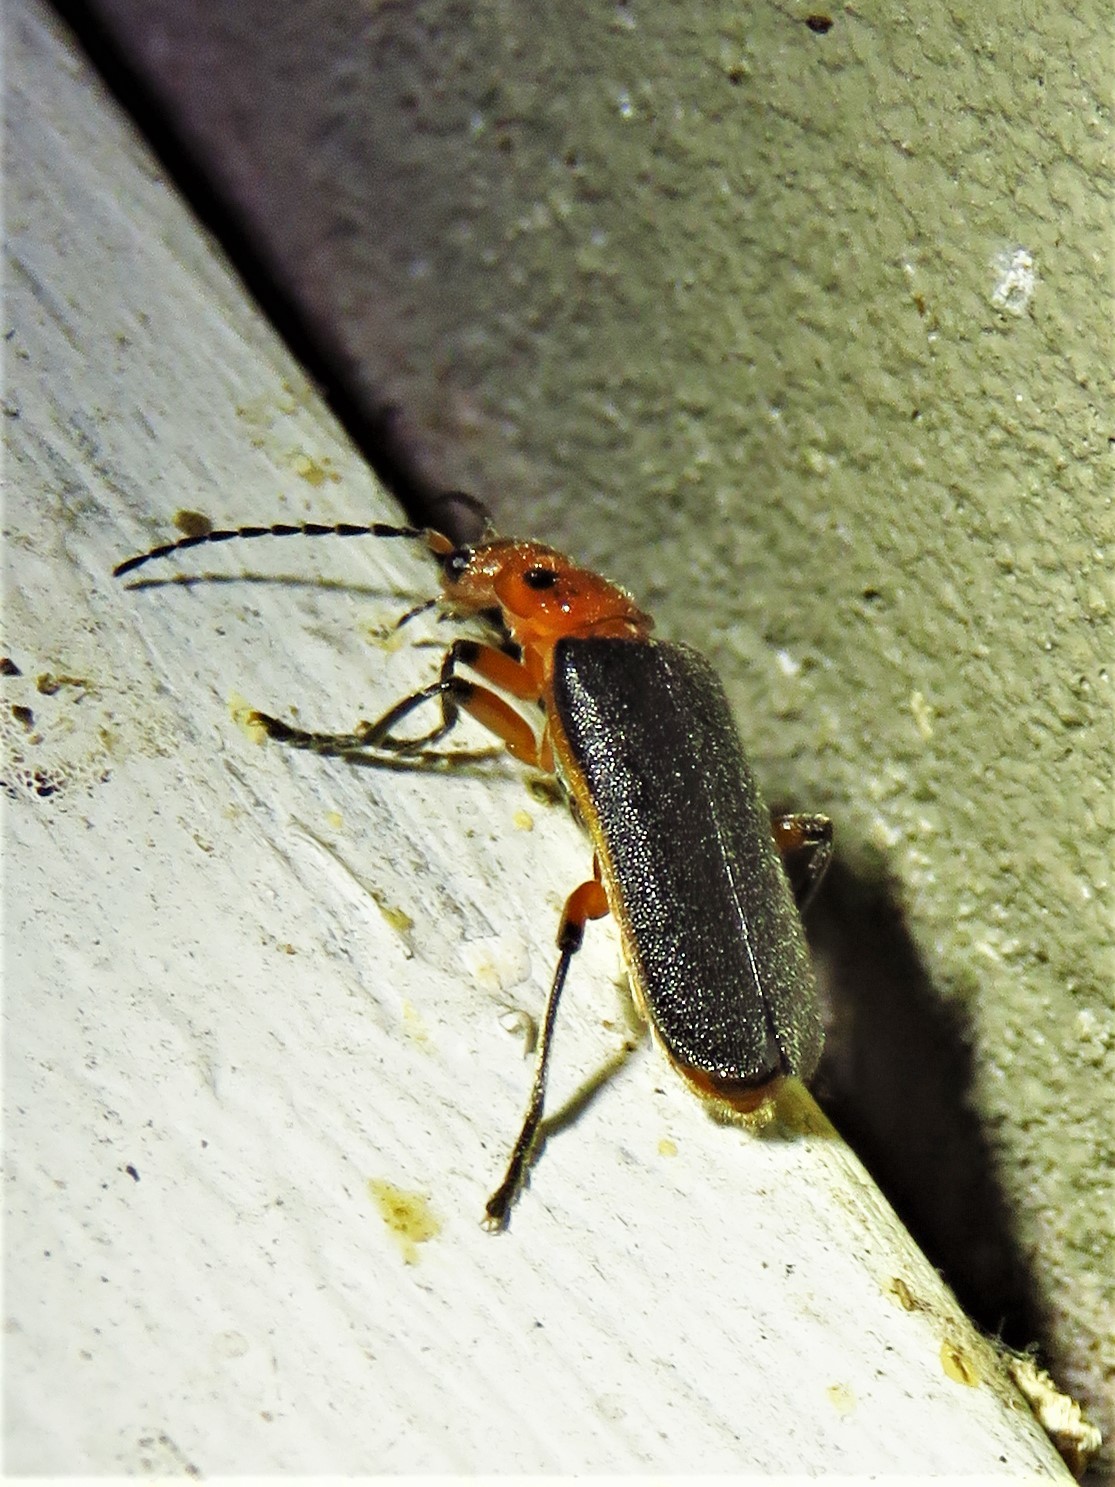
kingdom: Animalia
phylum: Arthropoda
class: Insecta
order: Coleoptera
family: Cantharidae
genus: Atalantycha
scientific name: Atalantycha bilineata
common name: Two-lined leatherwing
